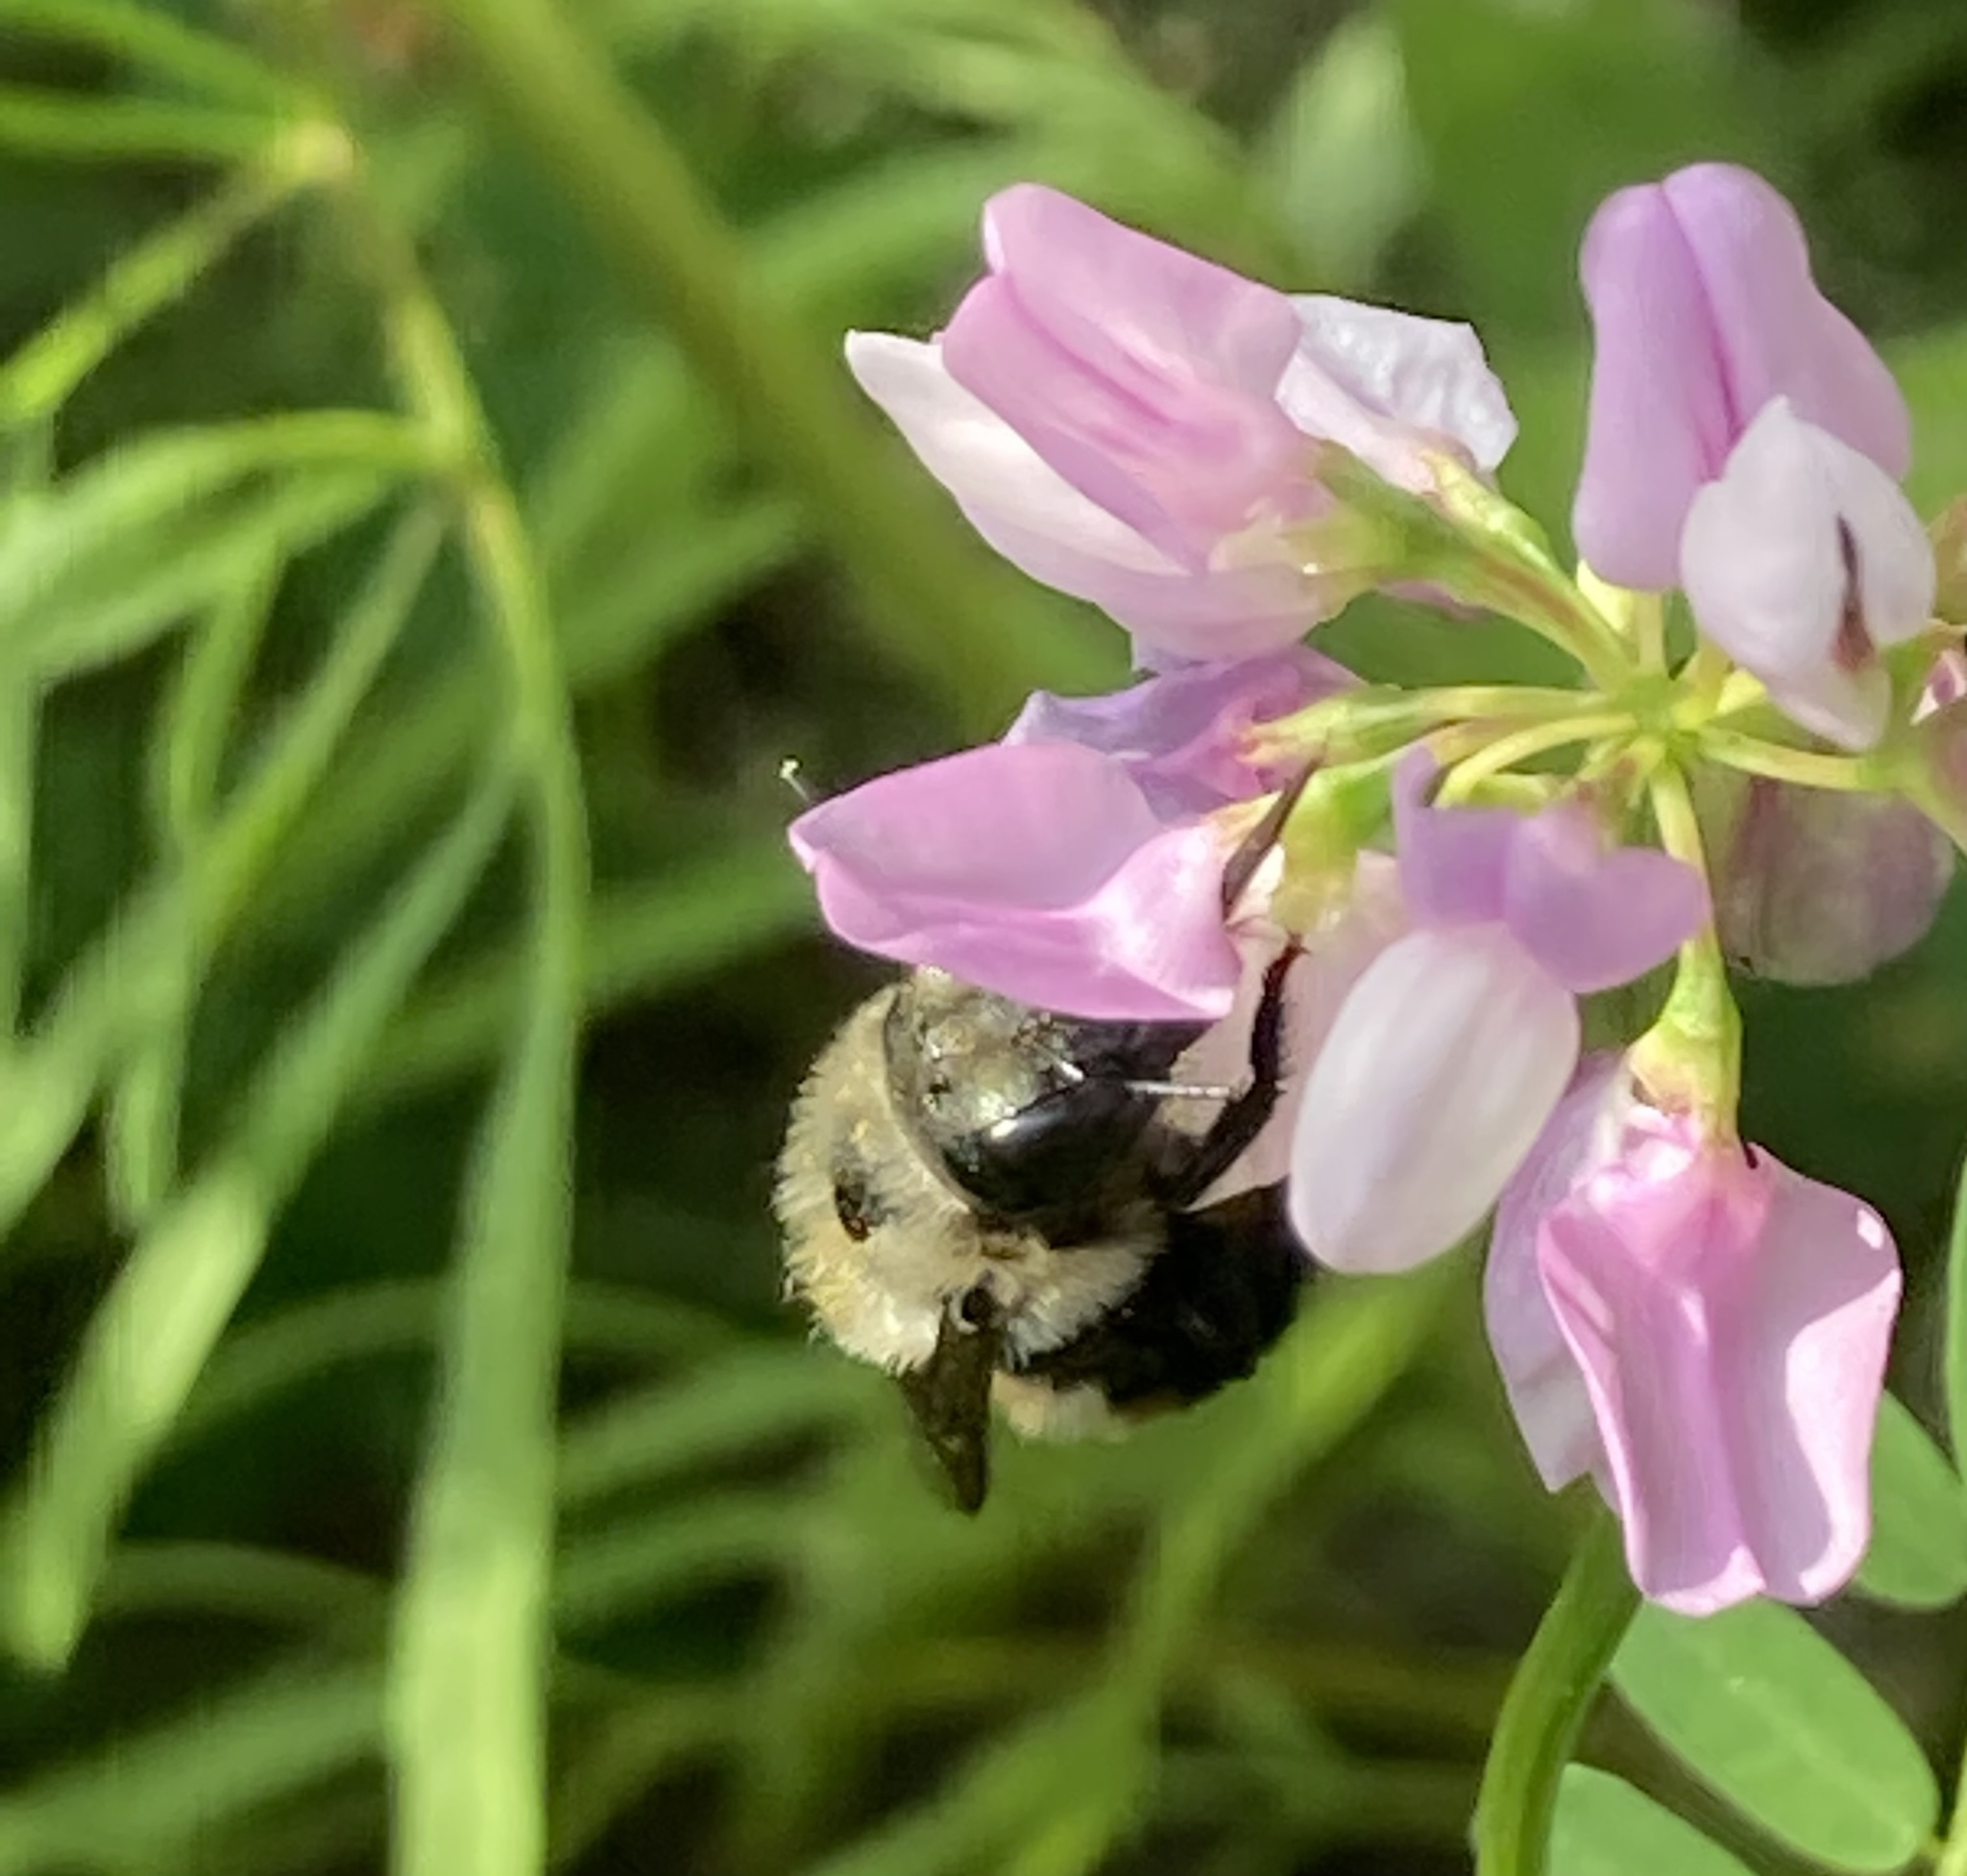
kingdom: Animalia
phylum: Arthropoda
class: Insecta
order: Hymenoptera
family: Megachilidae
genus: Osmia
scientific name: Osmia bucephala
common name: Bufflehead mason bee
